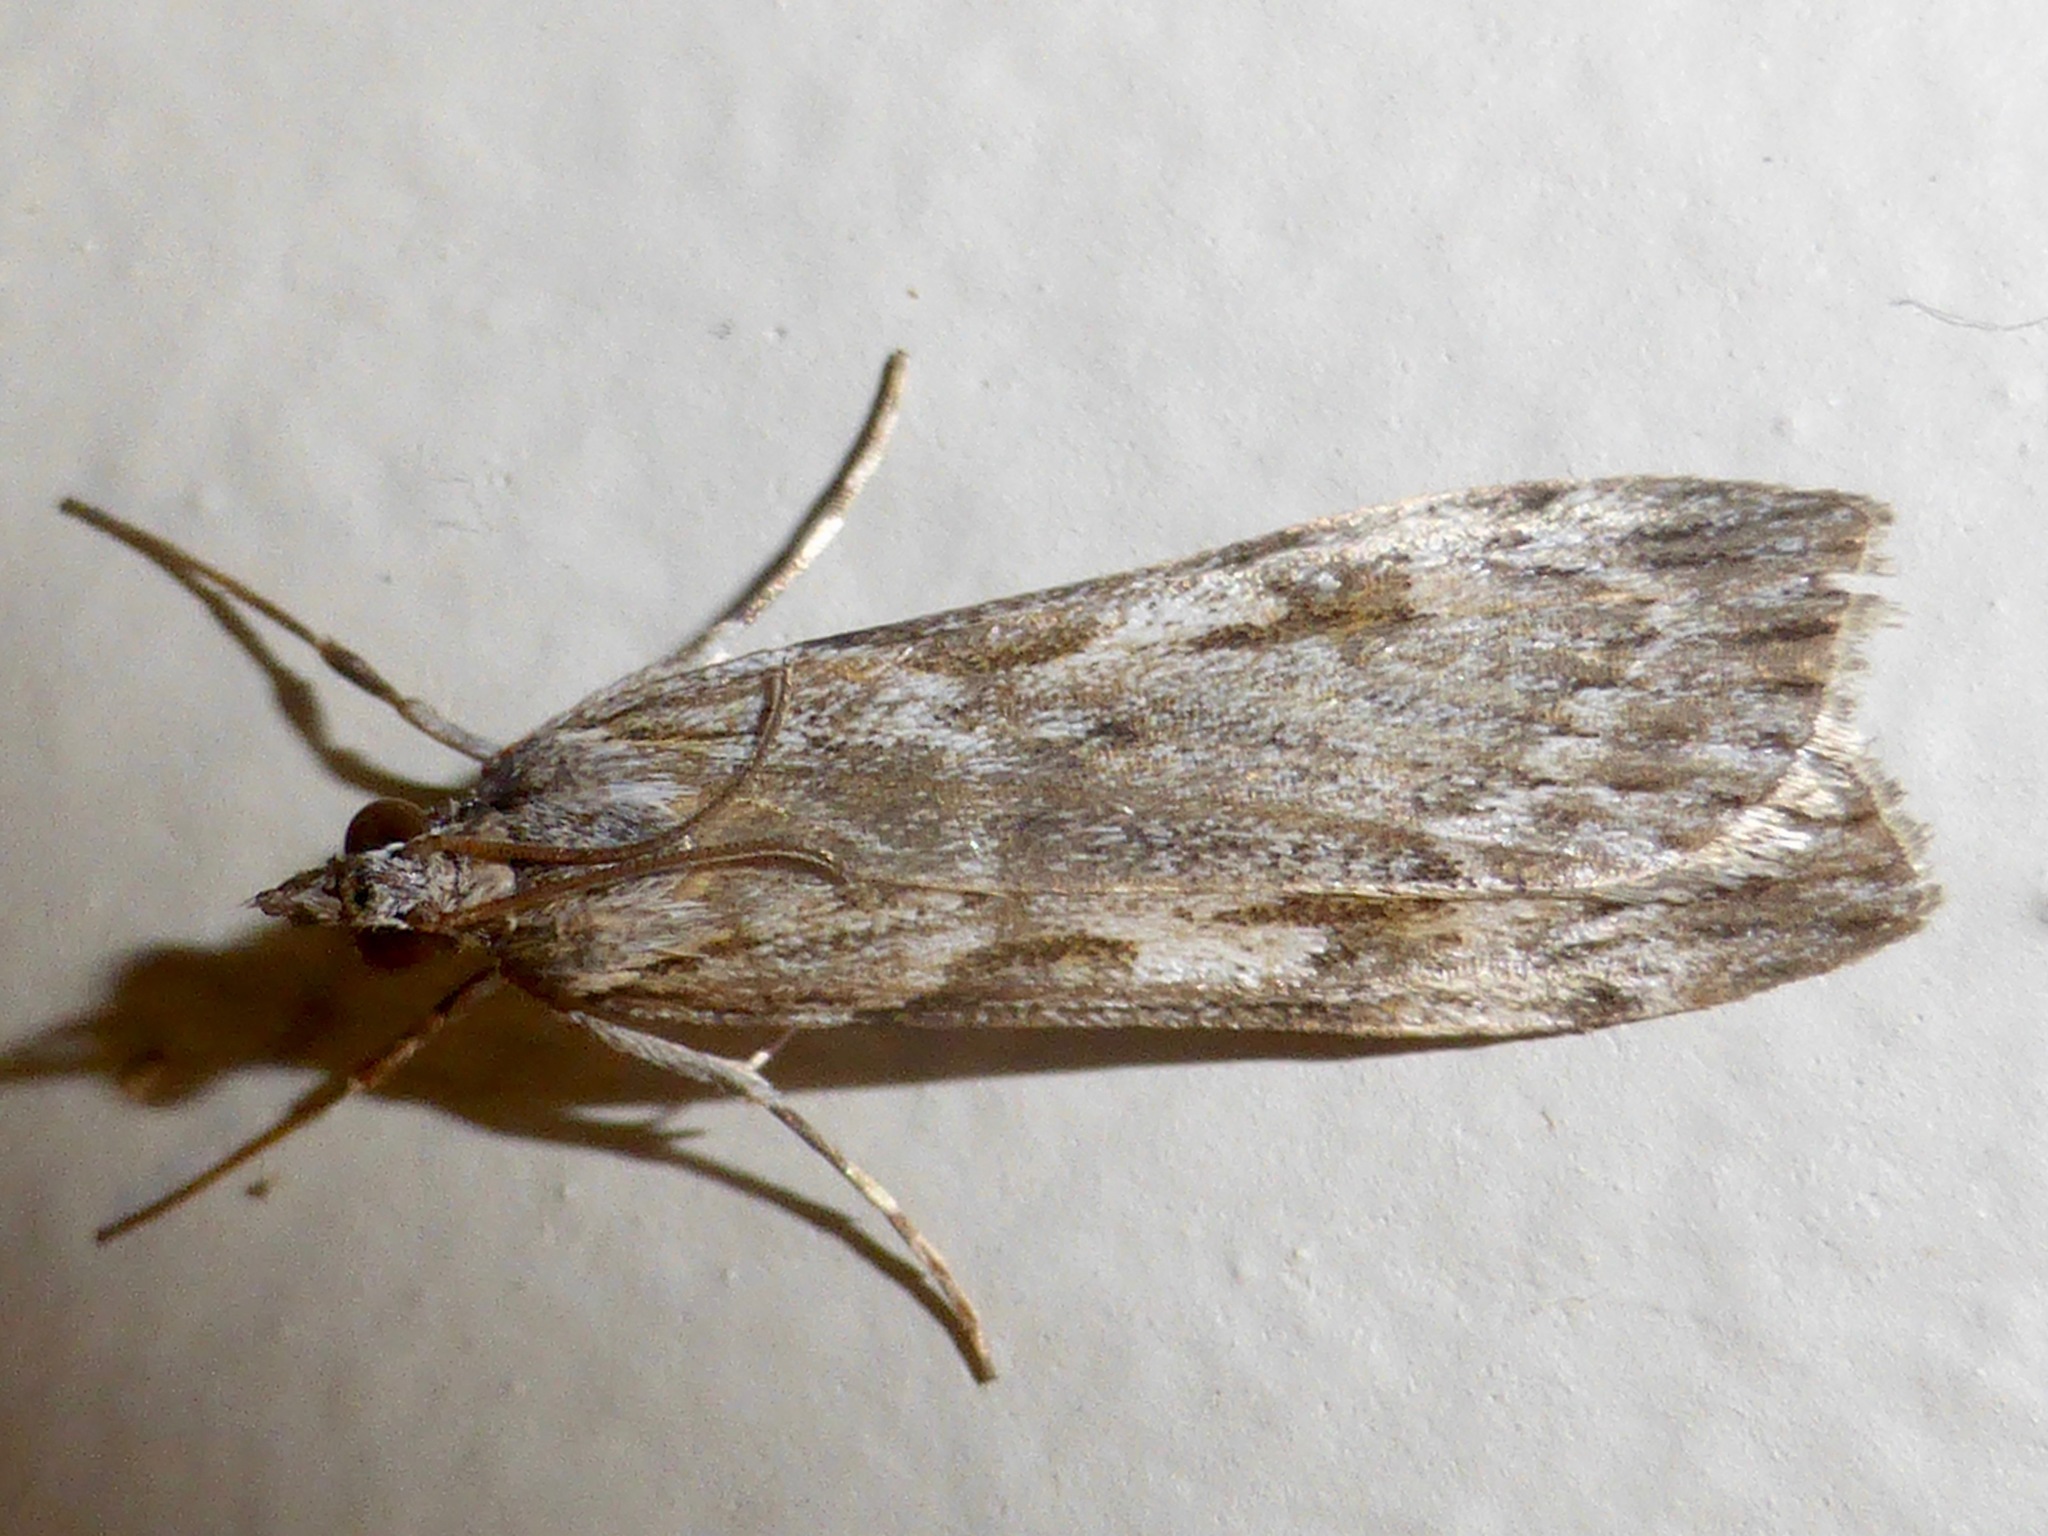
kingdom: Animalia
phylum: Arthropoda
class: Insecta
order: Lepidoptera
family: Crambidae
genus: Scoparia
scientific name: Scoparia halopis
